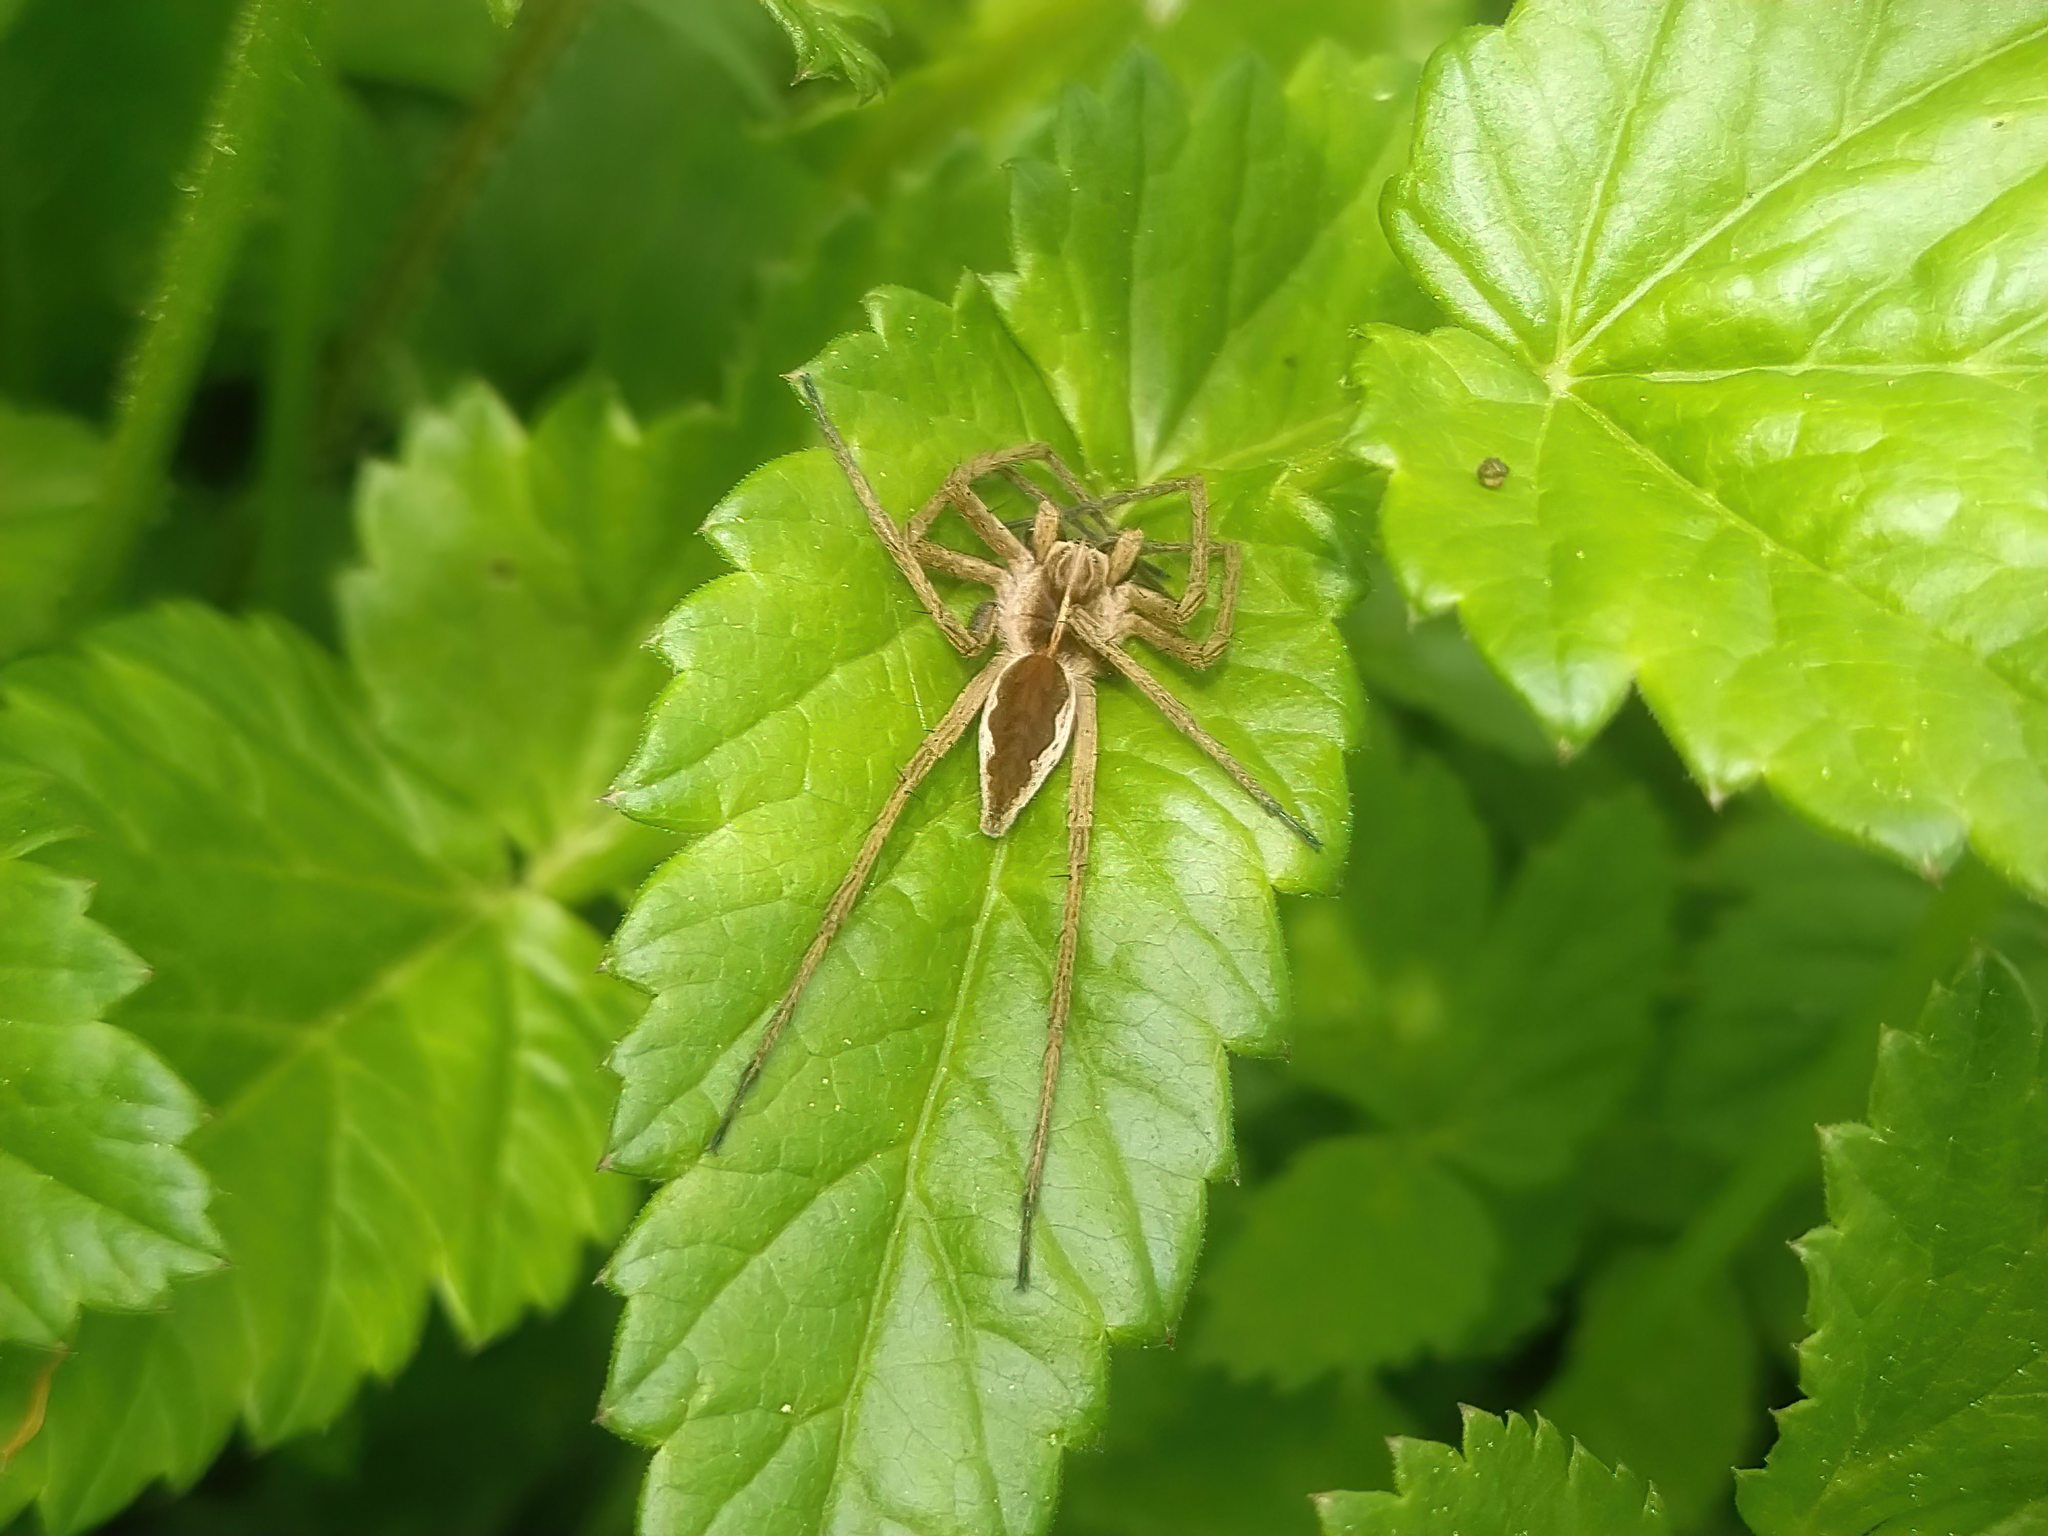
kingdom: Animalia
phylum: Arthropoda
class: Arachnida
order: Araneae
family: Pisauridae
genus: Pisaura
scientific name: Pisaura mirabilis
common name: Tent spider
